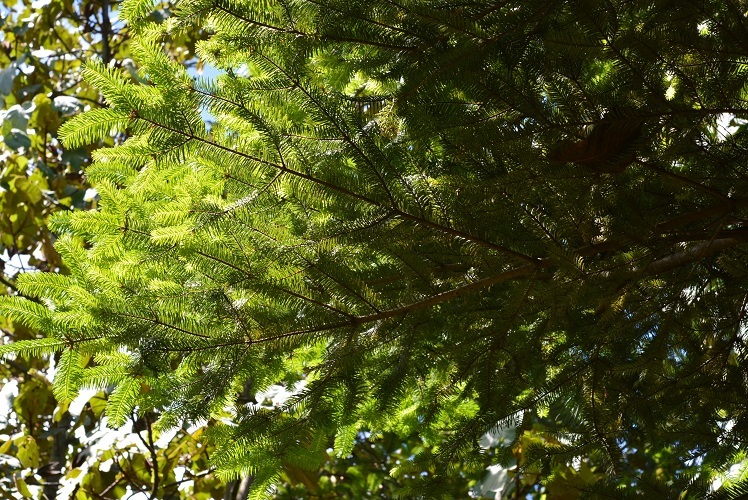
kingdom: Plantae
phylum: Tracheophyta
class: Pinopsida
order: Pinales
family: Pinaceae
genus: Abies
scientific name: Abies guatemalensis
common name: Guatemalan fir
